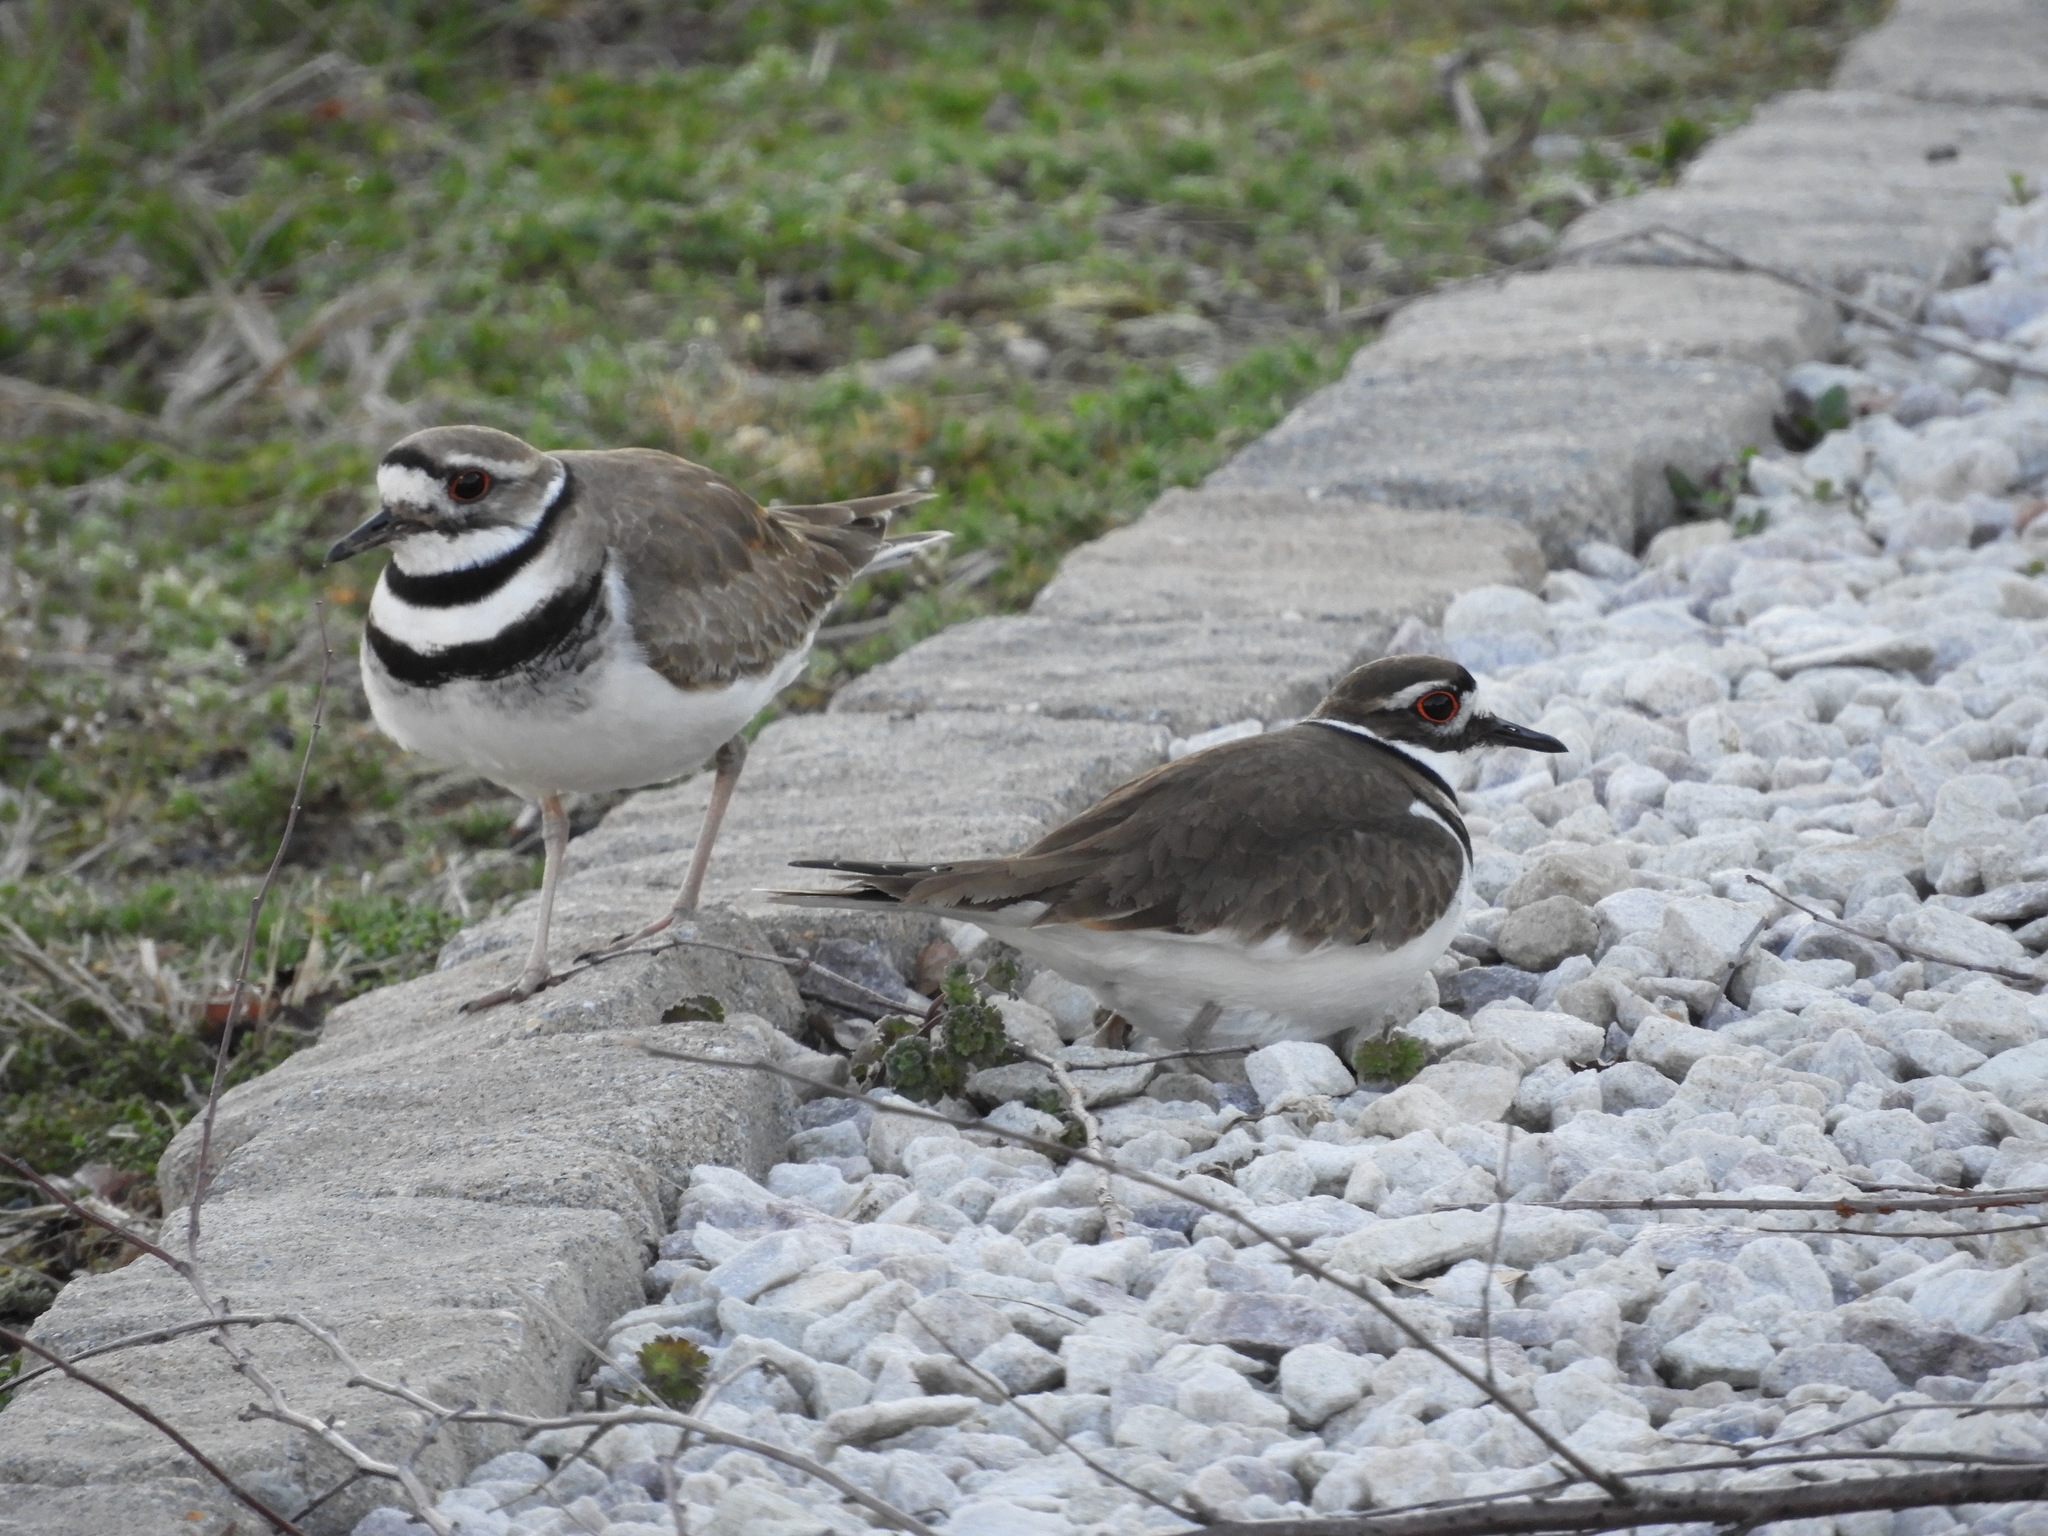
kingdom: Animalia
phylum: Chordata
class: Aves
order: Charadriiformes
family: Charadriidae
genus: Charadrius
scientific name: Charadrius vociferus
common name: Killdeer
